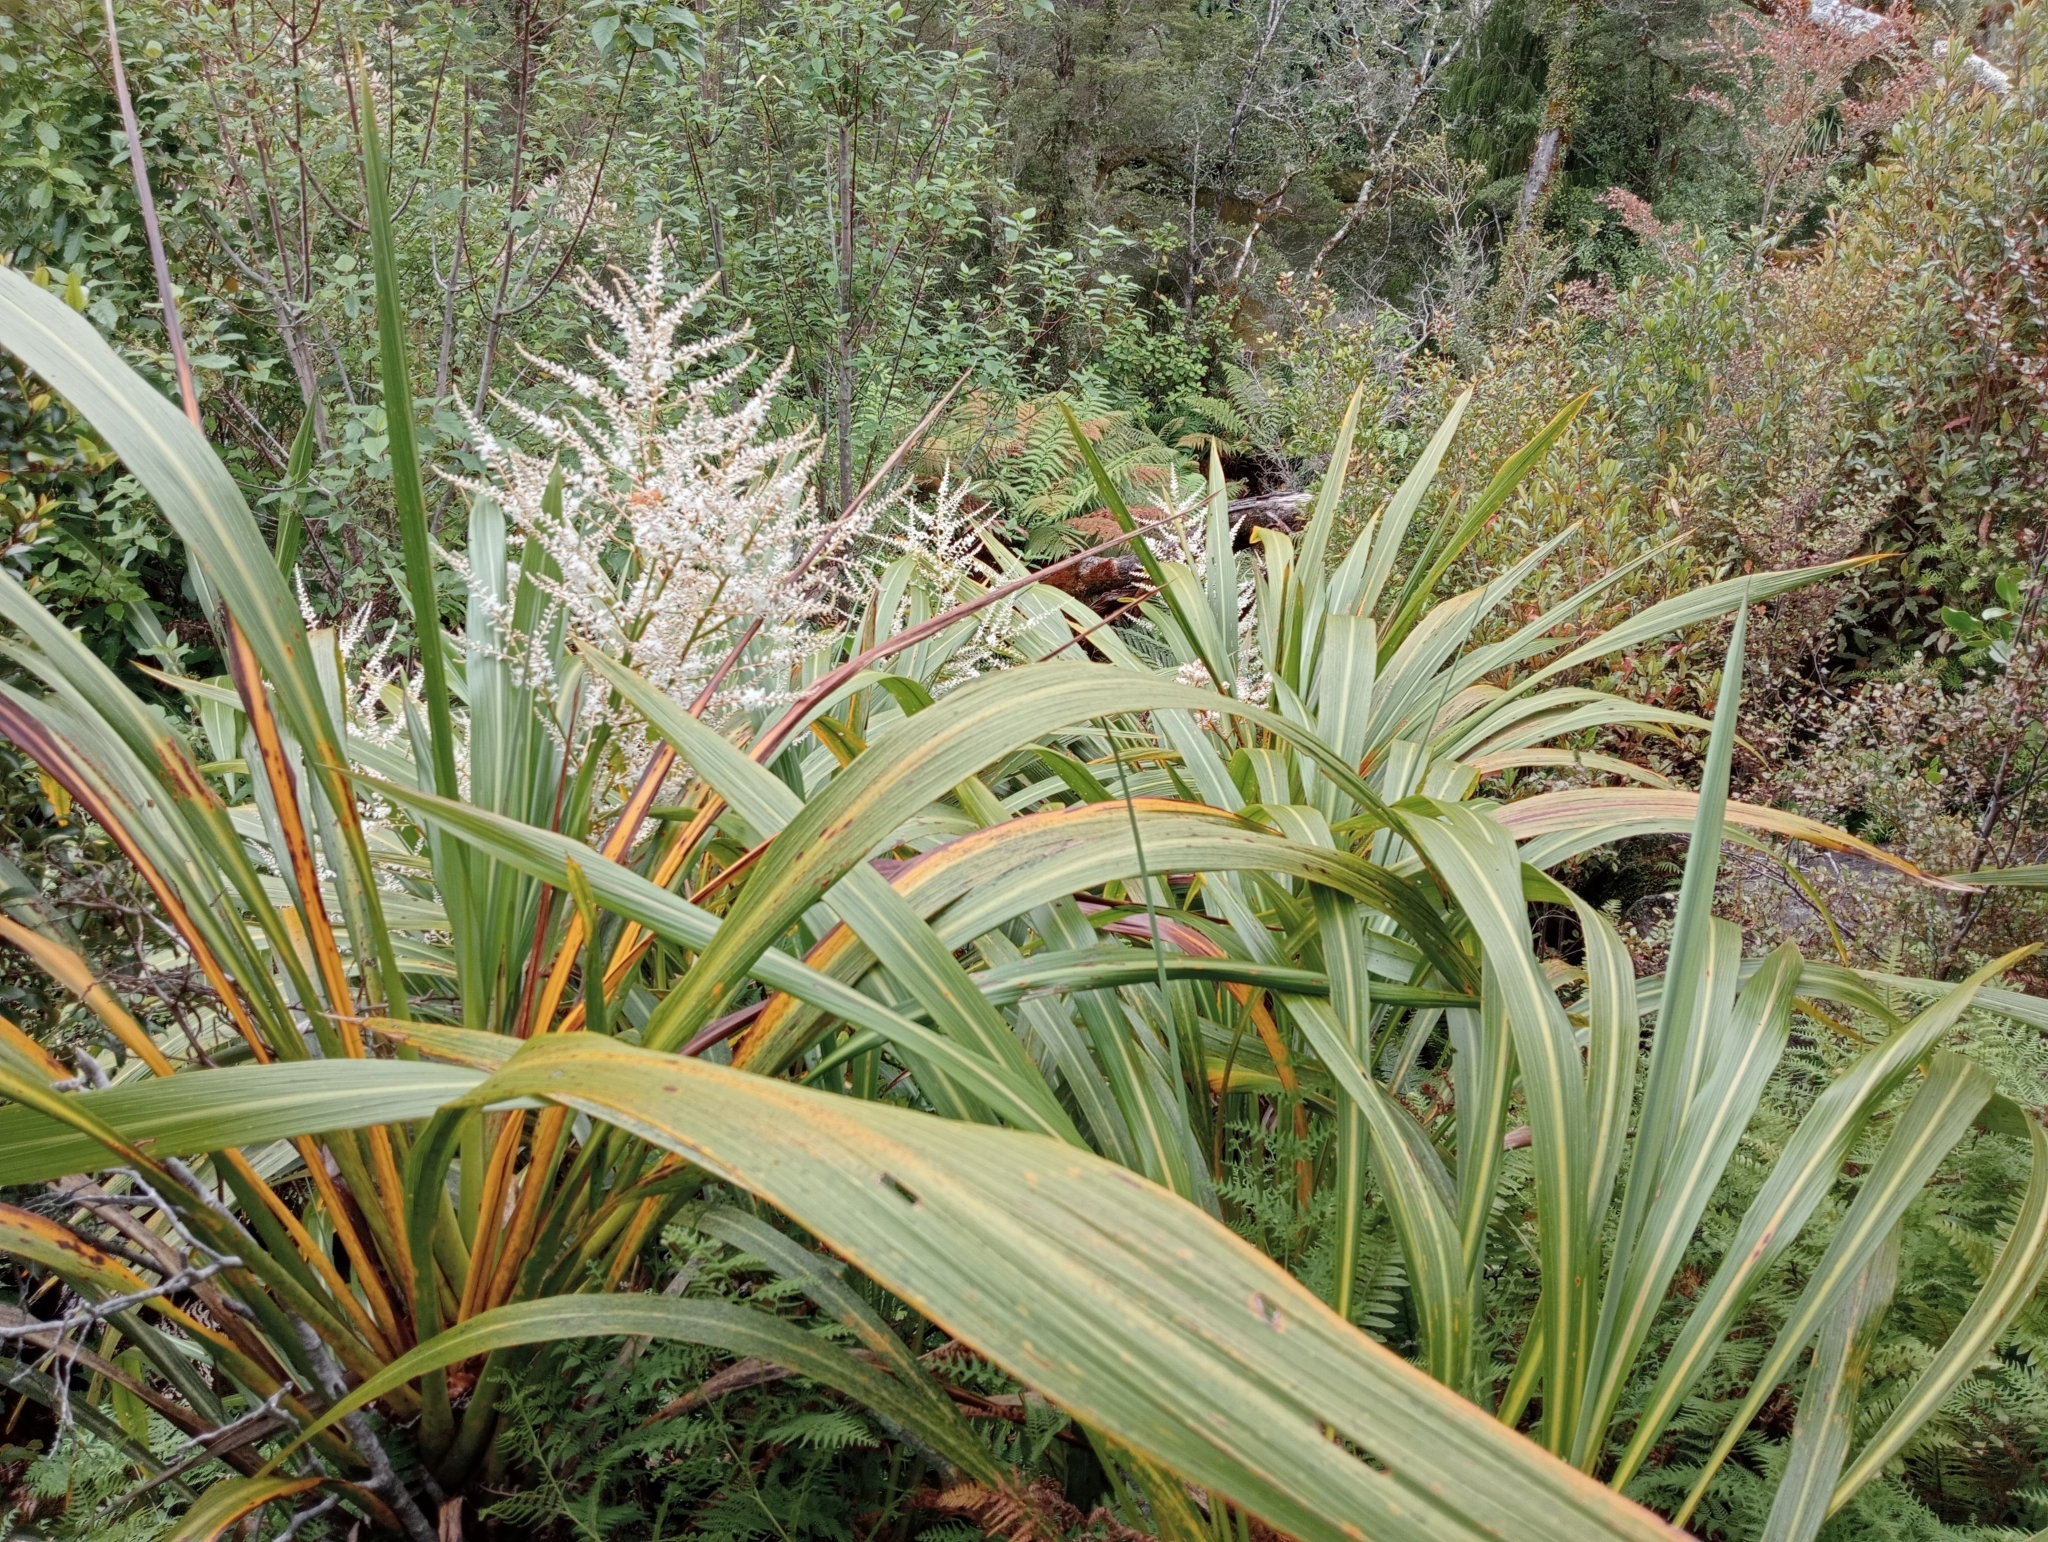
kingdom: Plantae
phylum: Tracheophyta
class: Liliopsida
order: Asparagales
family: Asparagaceae
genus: Cordyline
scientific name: Cordyline banksii
